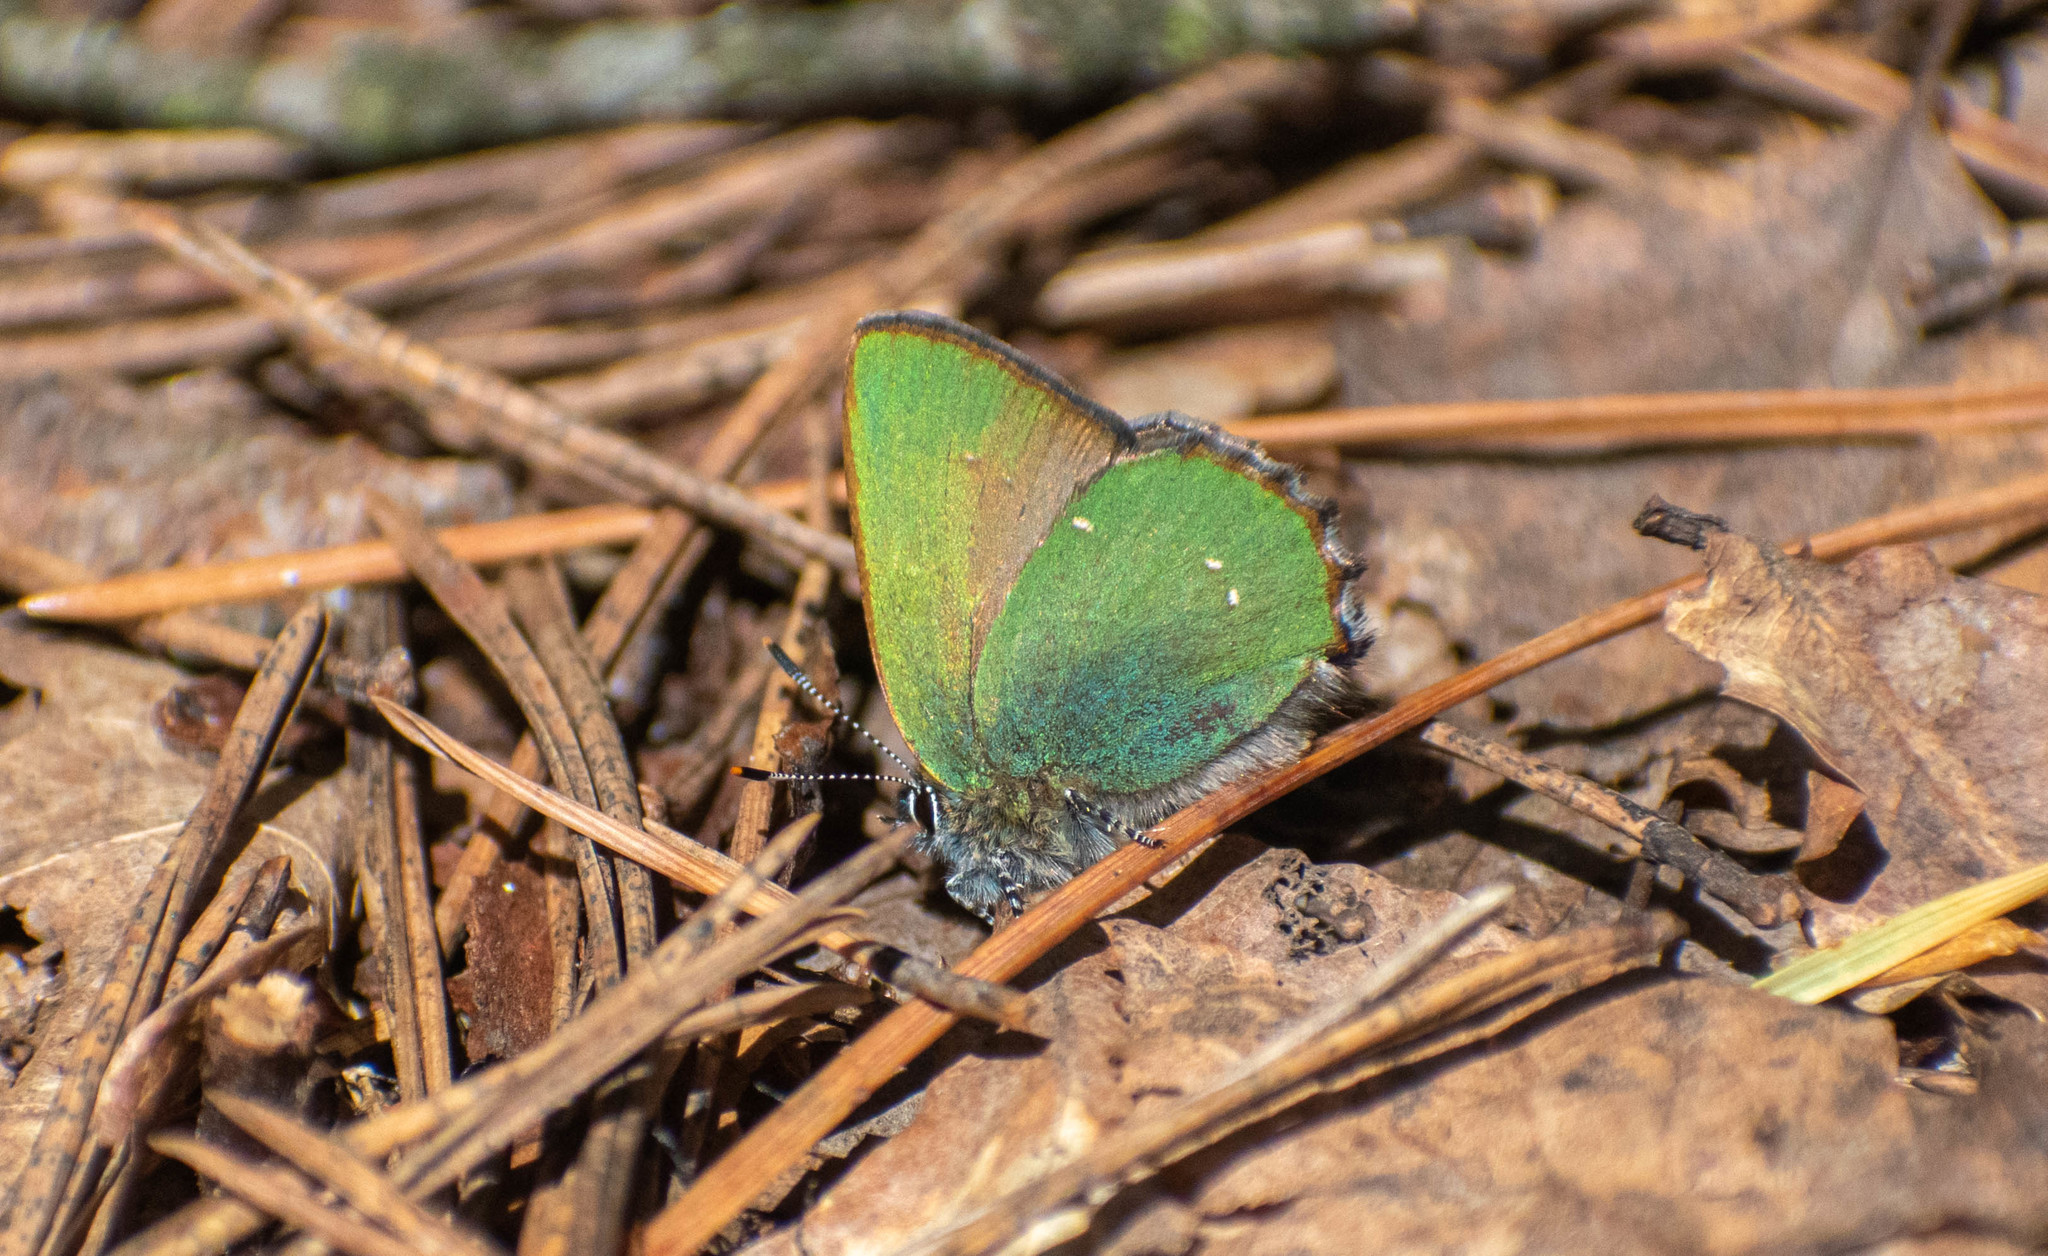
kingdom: Animalia
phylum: Arthropoda
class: Insecta
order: Lepidoptera
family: Lycaenidae
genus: Callophrys
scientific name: Callophrys rubi
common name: Green hairstreak
